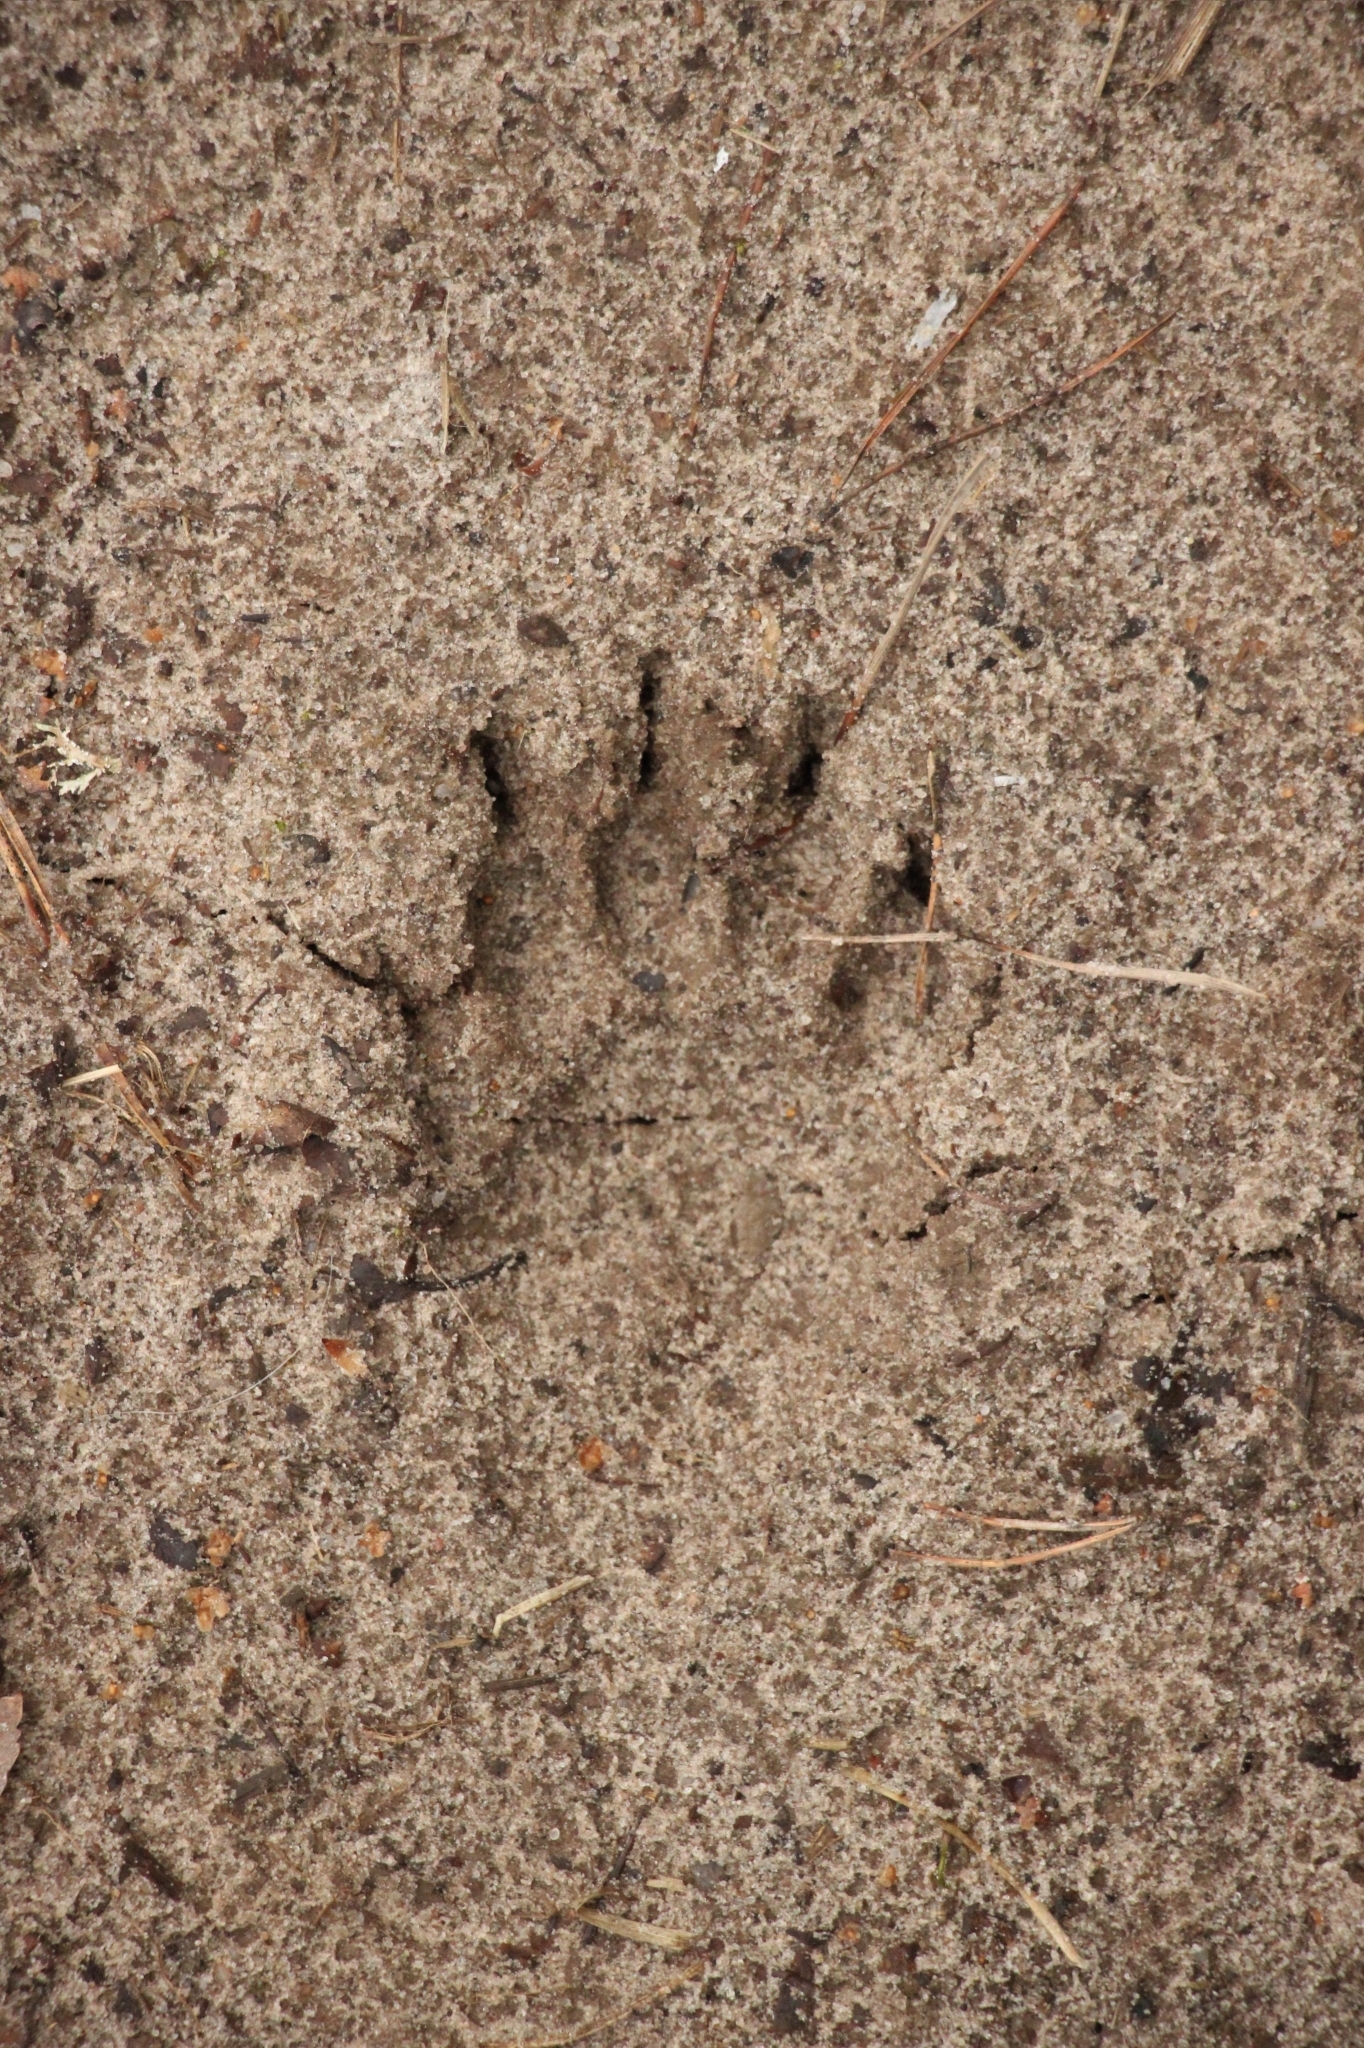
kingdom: Animalia
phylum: Chordata
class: Mammalia
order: Carnivora
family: Mustelidae
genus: Meles
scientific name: Meles meles
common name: Eurasian badger
